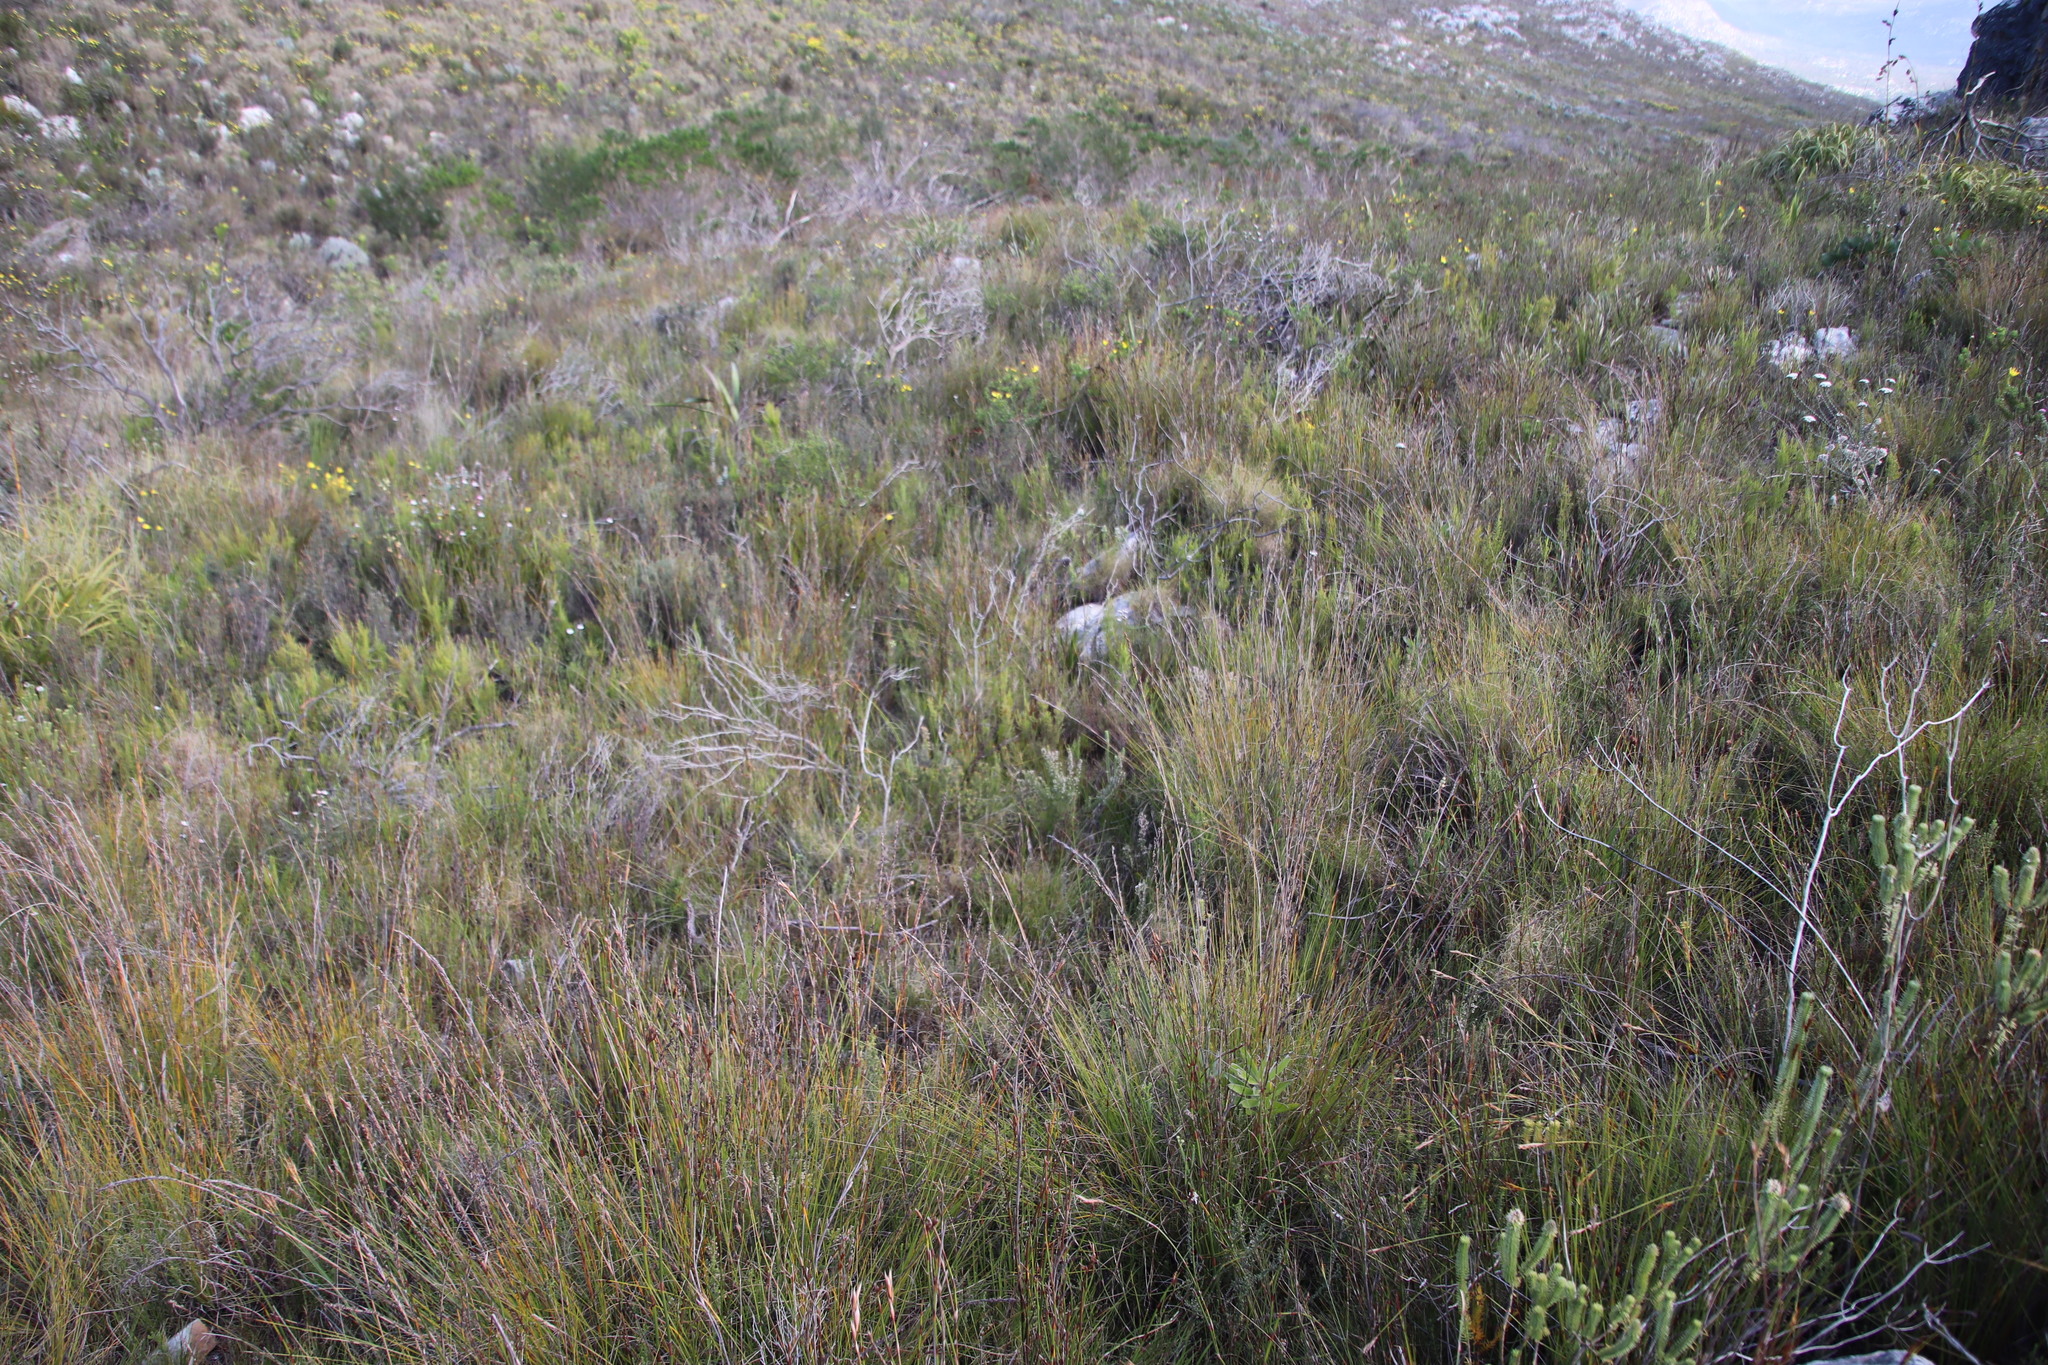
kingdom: Plantae
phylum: Tracheophyta
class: Magnoliopsida
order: Ericales
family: Ericaceae
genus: Erica
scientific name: Erica hispidula
